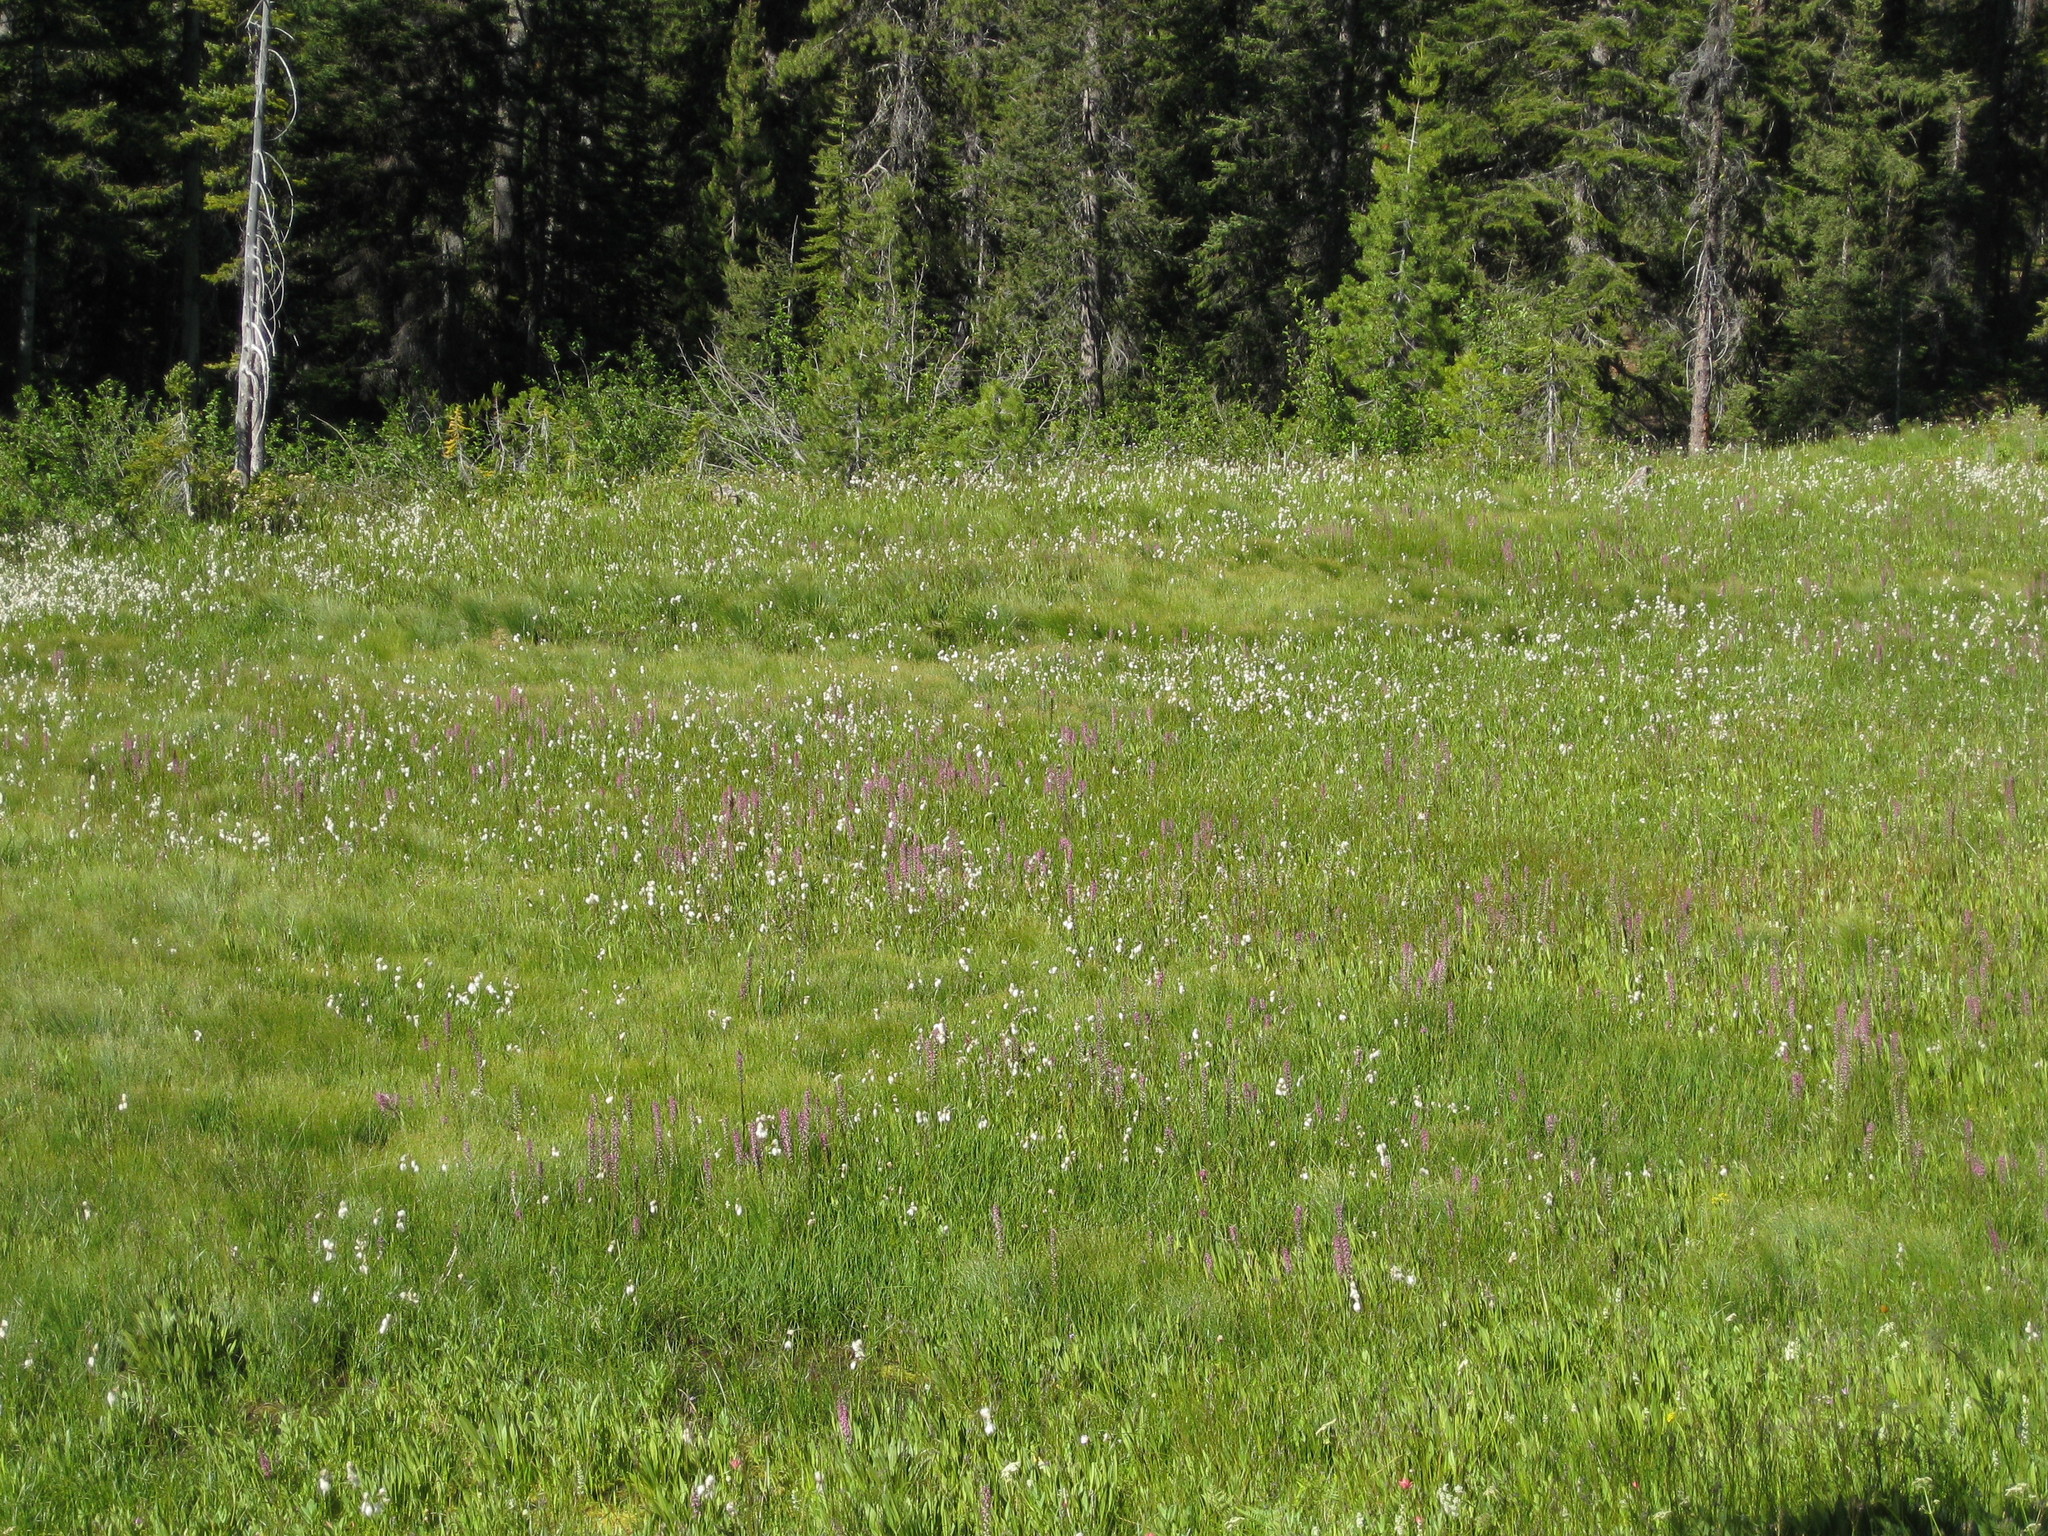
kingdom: Plantae
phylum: Tracheophyta
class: Magnoliopsida
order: Lamiales
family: Orobanchaceae
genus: Pedicularis
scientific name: Pedicularis groenlandica
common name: Elephant's-head
